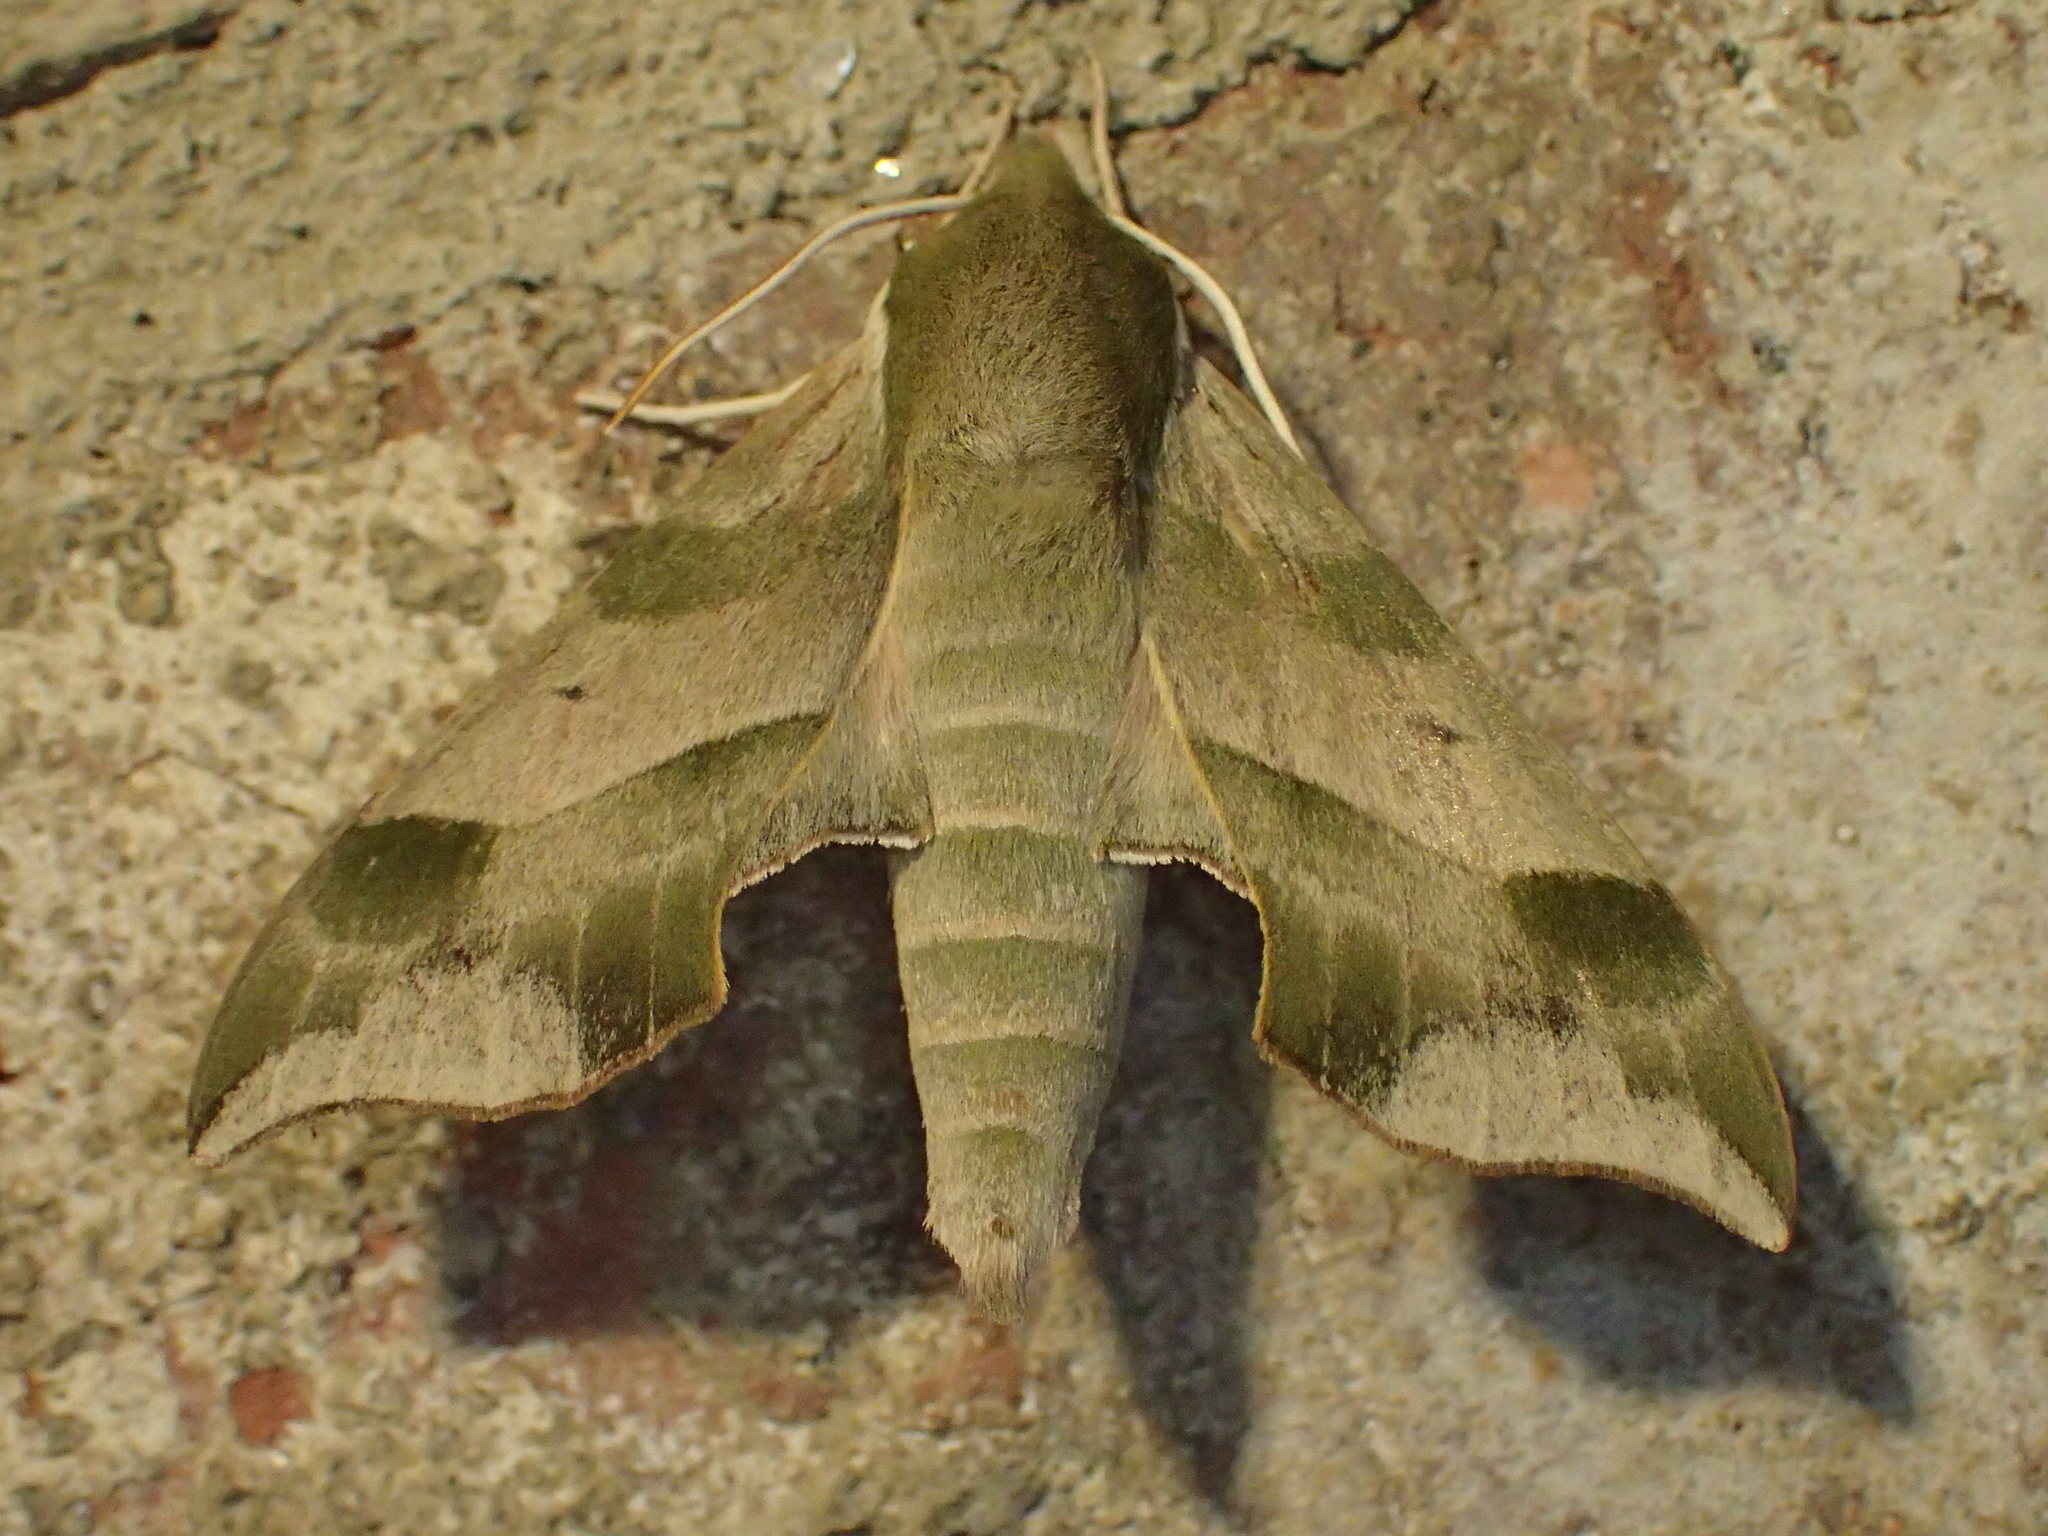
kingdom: Animalia
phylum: Arthropoda
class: Insecta
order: Lepidoptera
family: Sphingidae
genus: Darapsa
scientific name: Darapsa myron
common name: Hog sphinx
